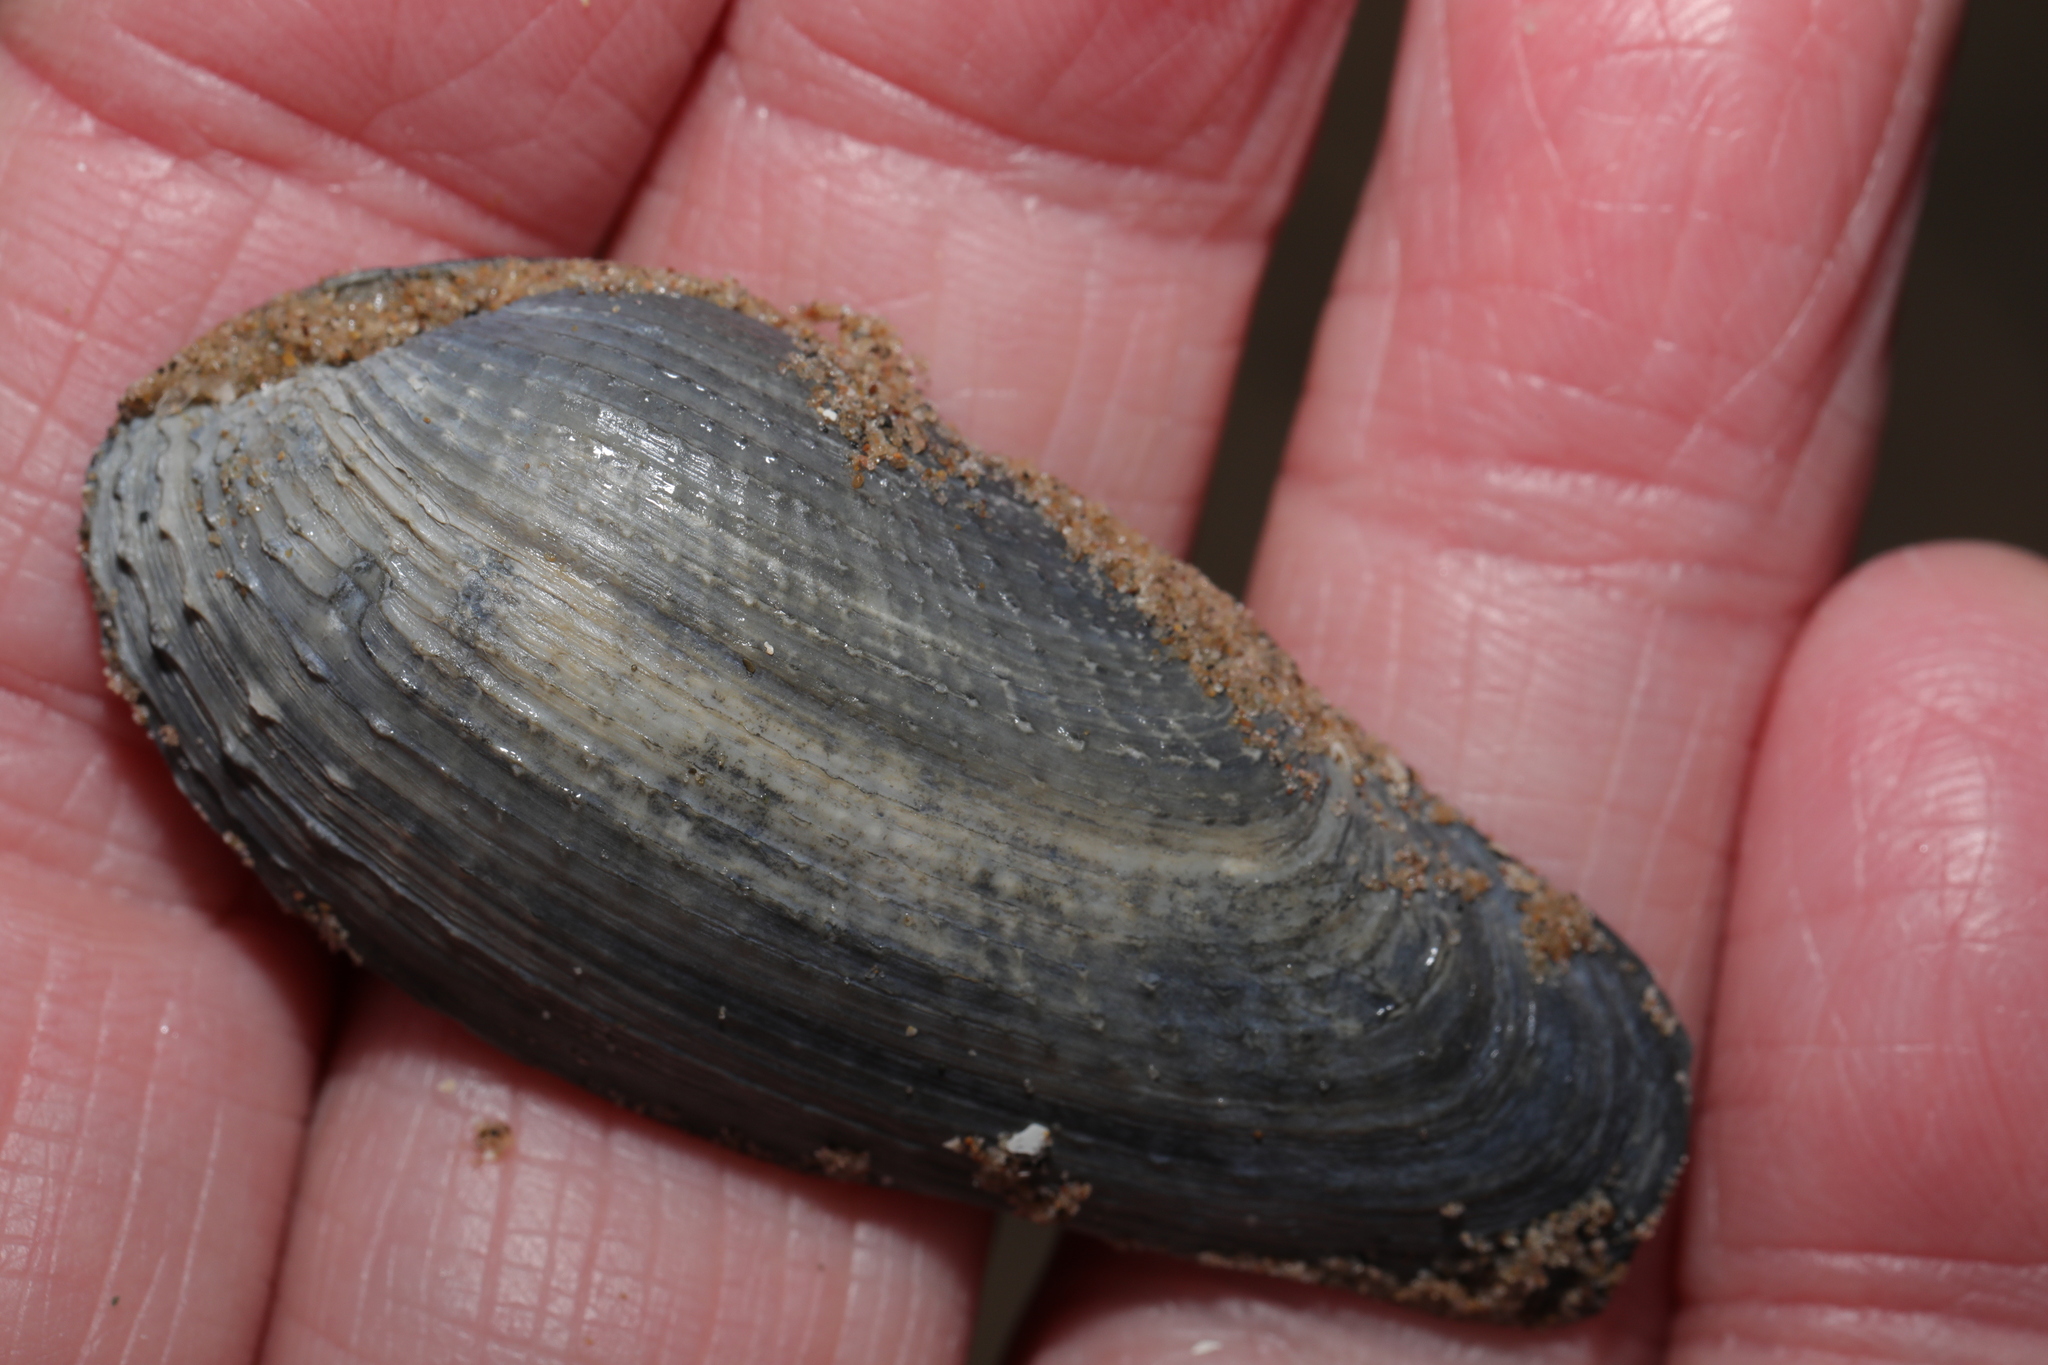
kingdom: Animalia
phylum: Mollusca
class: Bivalvia
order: Myida
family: Pholadidae
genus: Barnea
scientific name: Barnea candida
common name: White piddock
